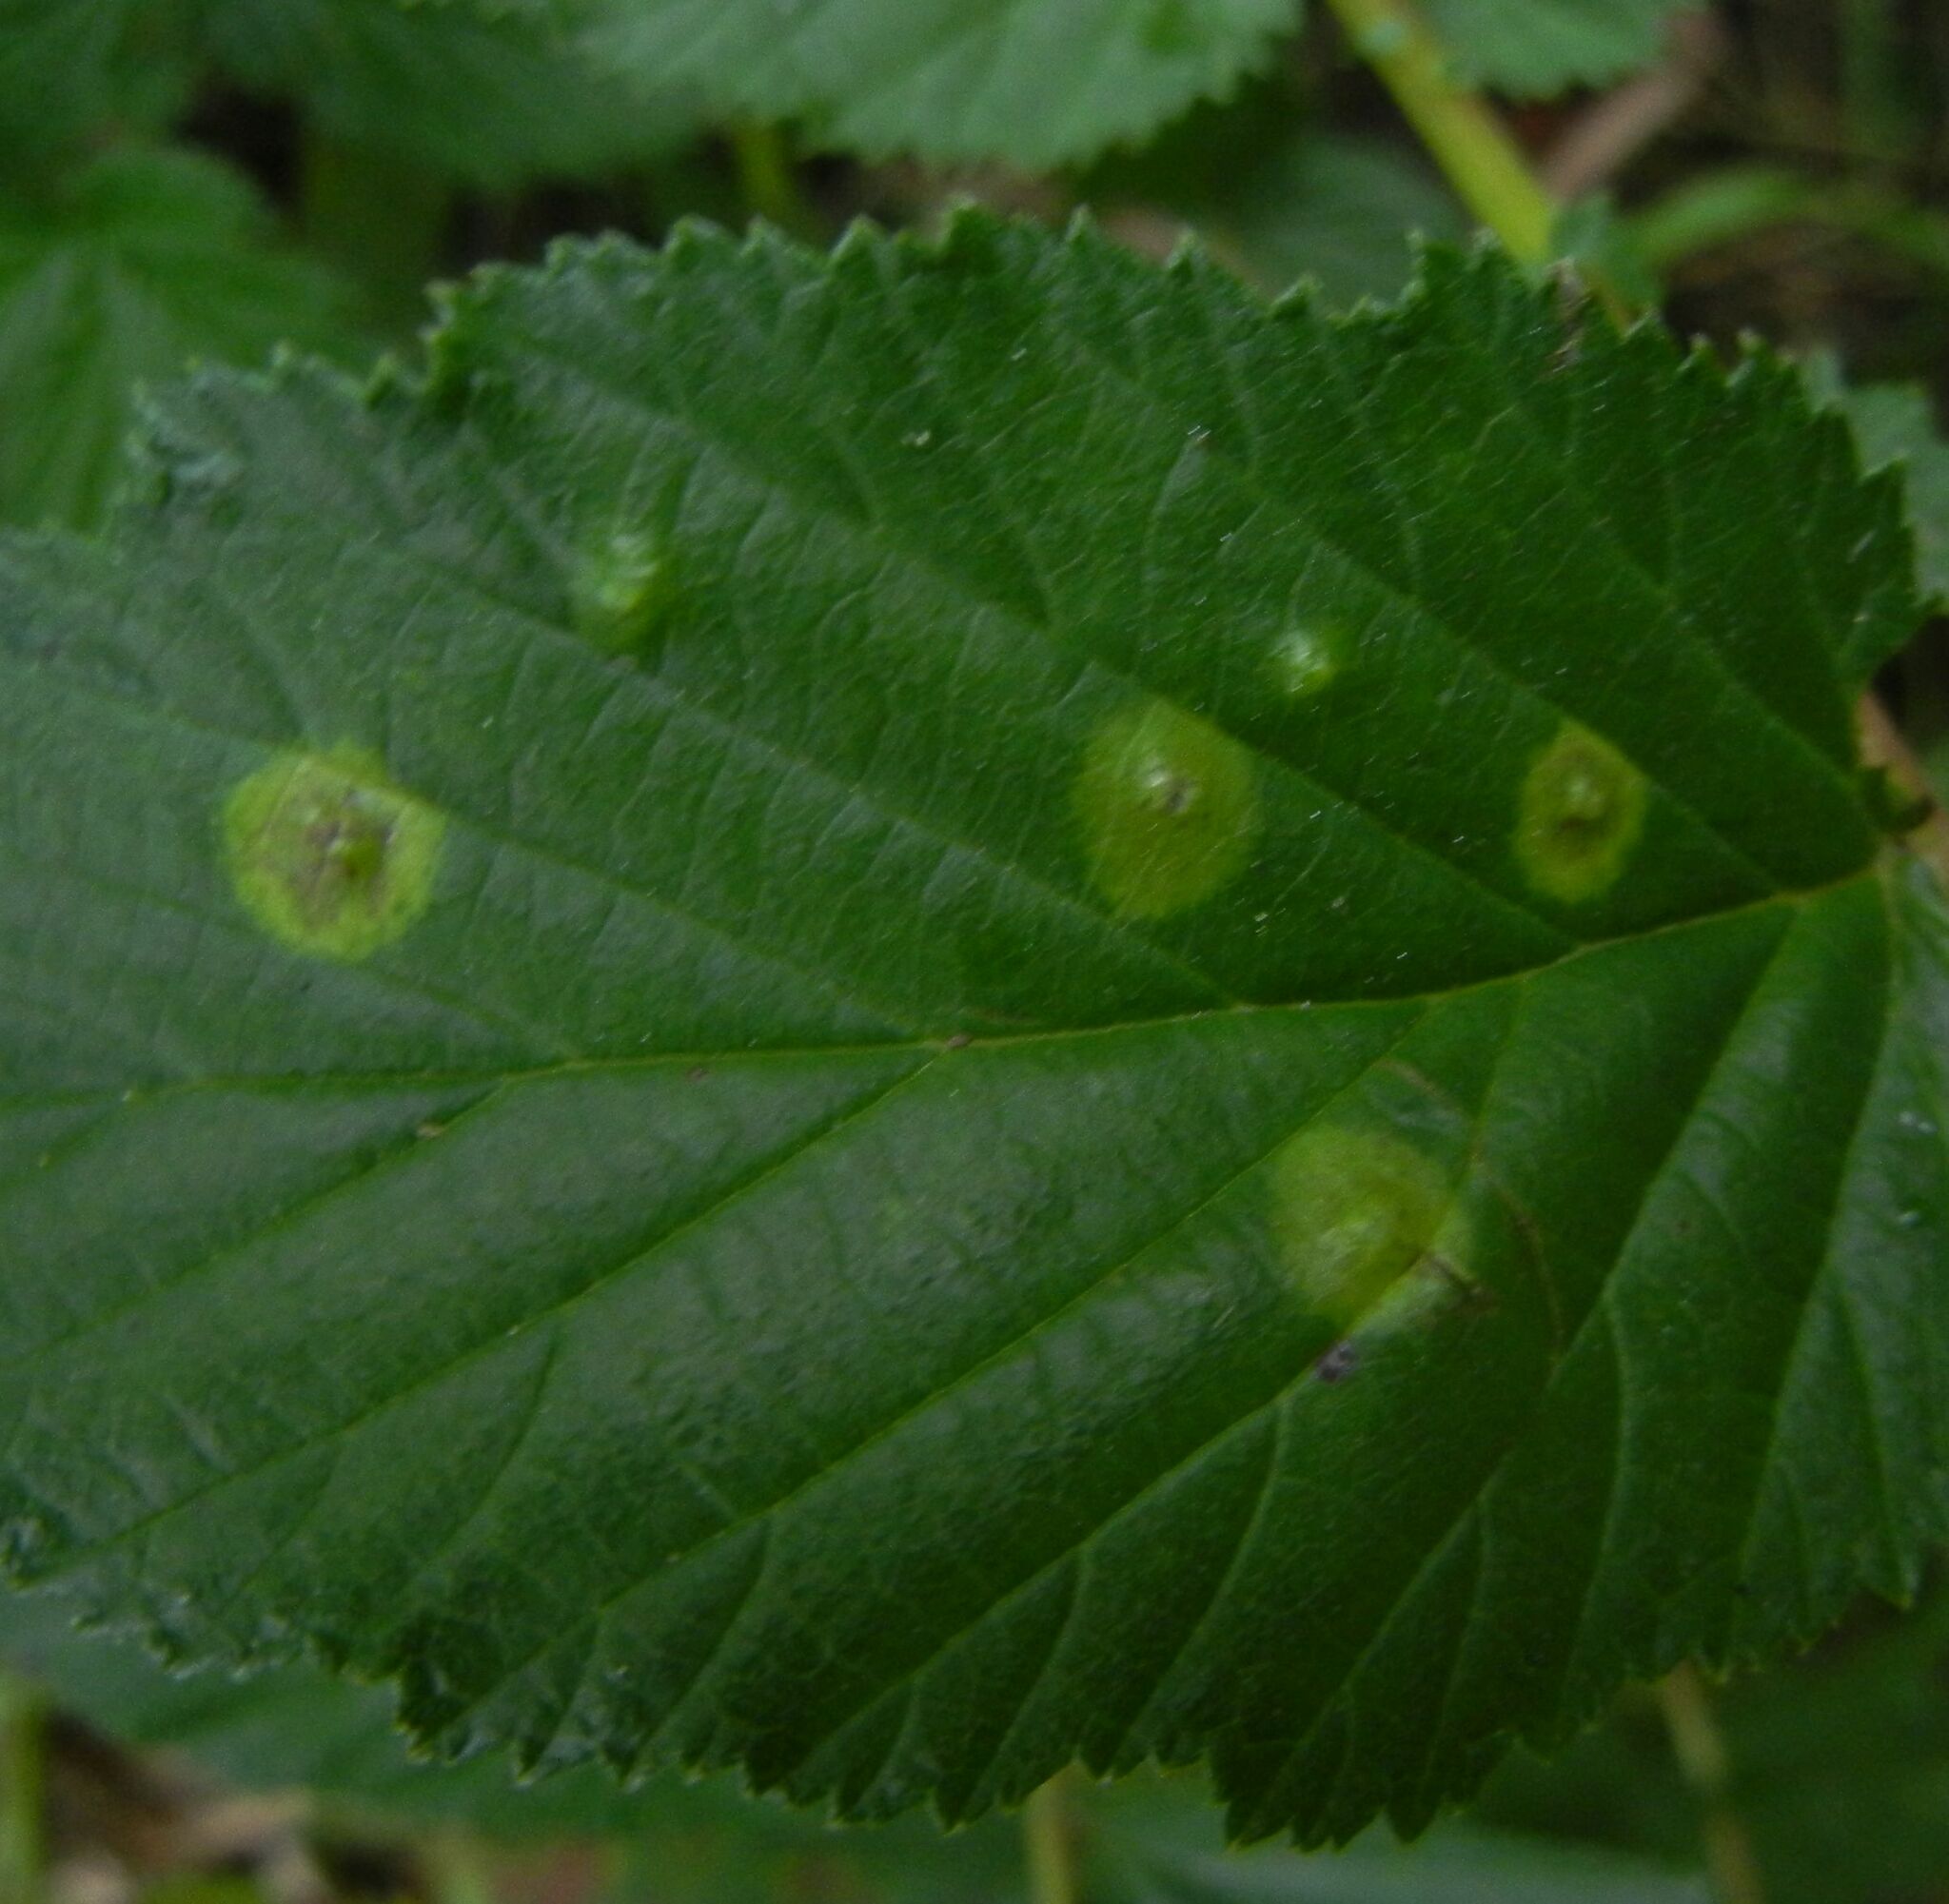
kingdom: Animalia
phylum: Arthropoda
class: Insecta
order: Diptera
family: Cecidomyiidae
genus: Dasineura
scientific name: Dasineura pustulans
